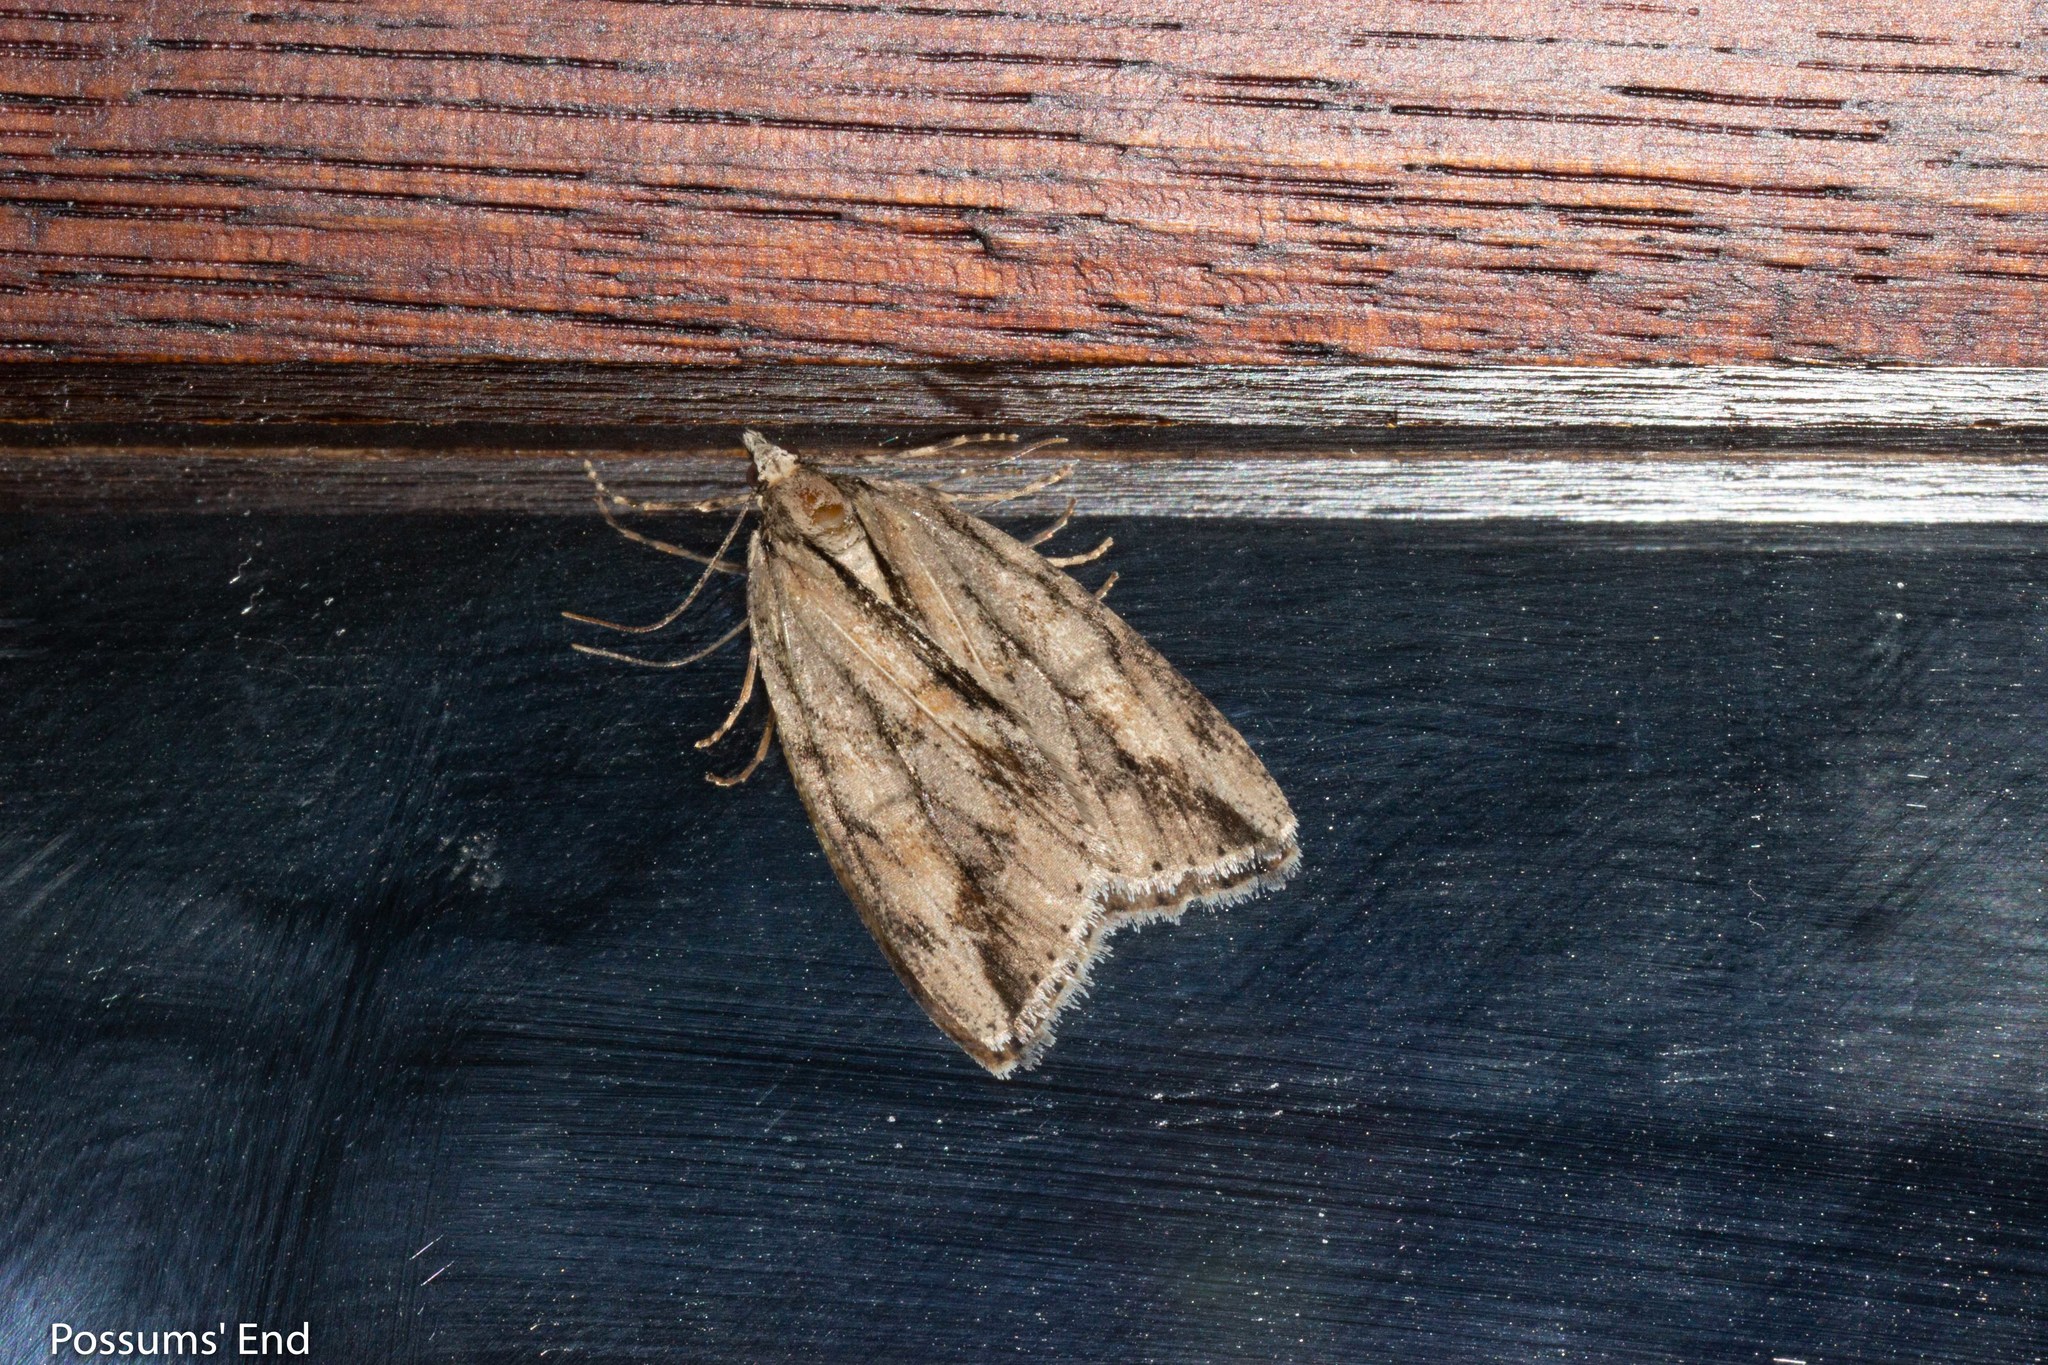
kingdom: Animalia
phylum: Arthropoda
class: Insecta
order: Lepidoptera
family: Geometridae
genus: Pseudocoremia
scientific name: Pseudocoremia lupinata
